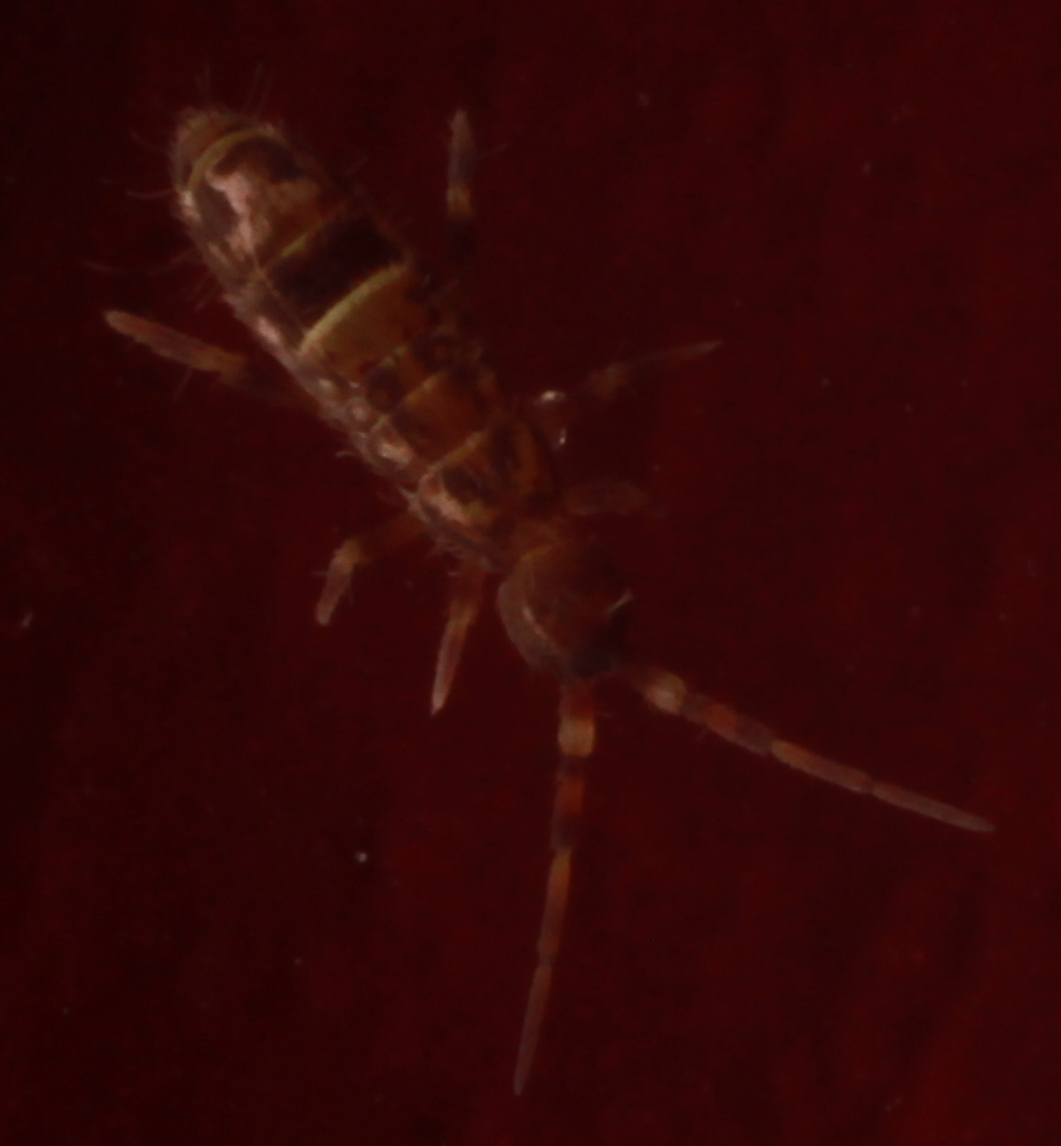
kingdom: Animalia
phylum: Arthropoda
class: Collembola
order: Entomobryomorpha
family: Orchesellidae
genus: Orchesella
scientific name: Orchesella cincta
